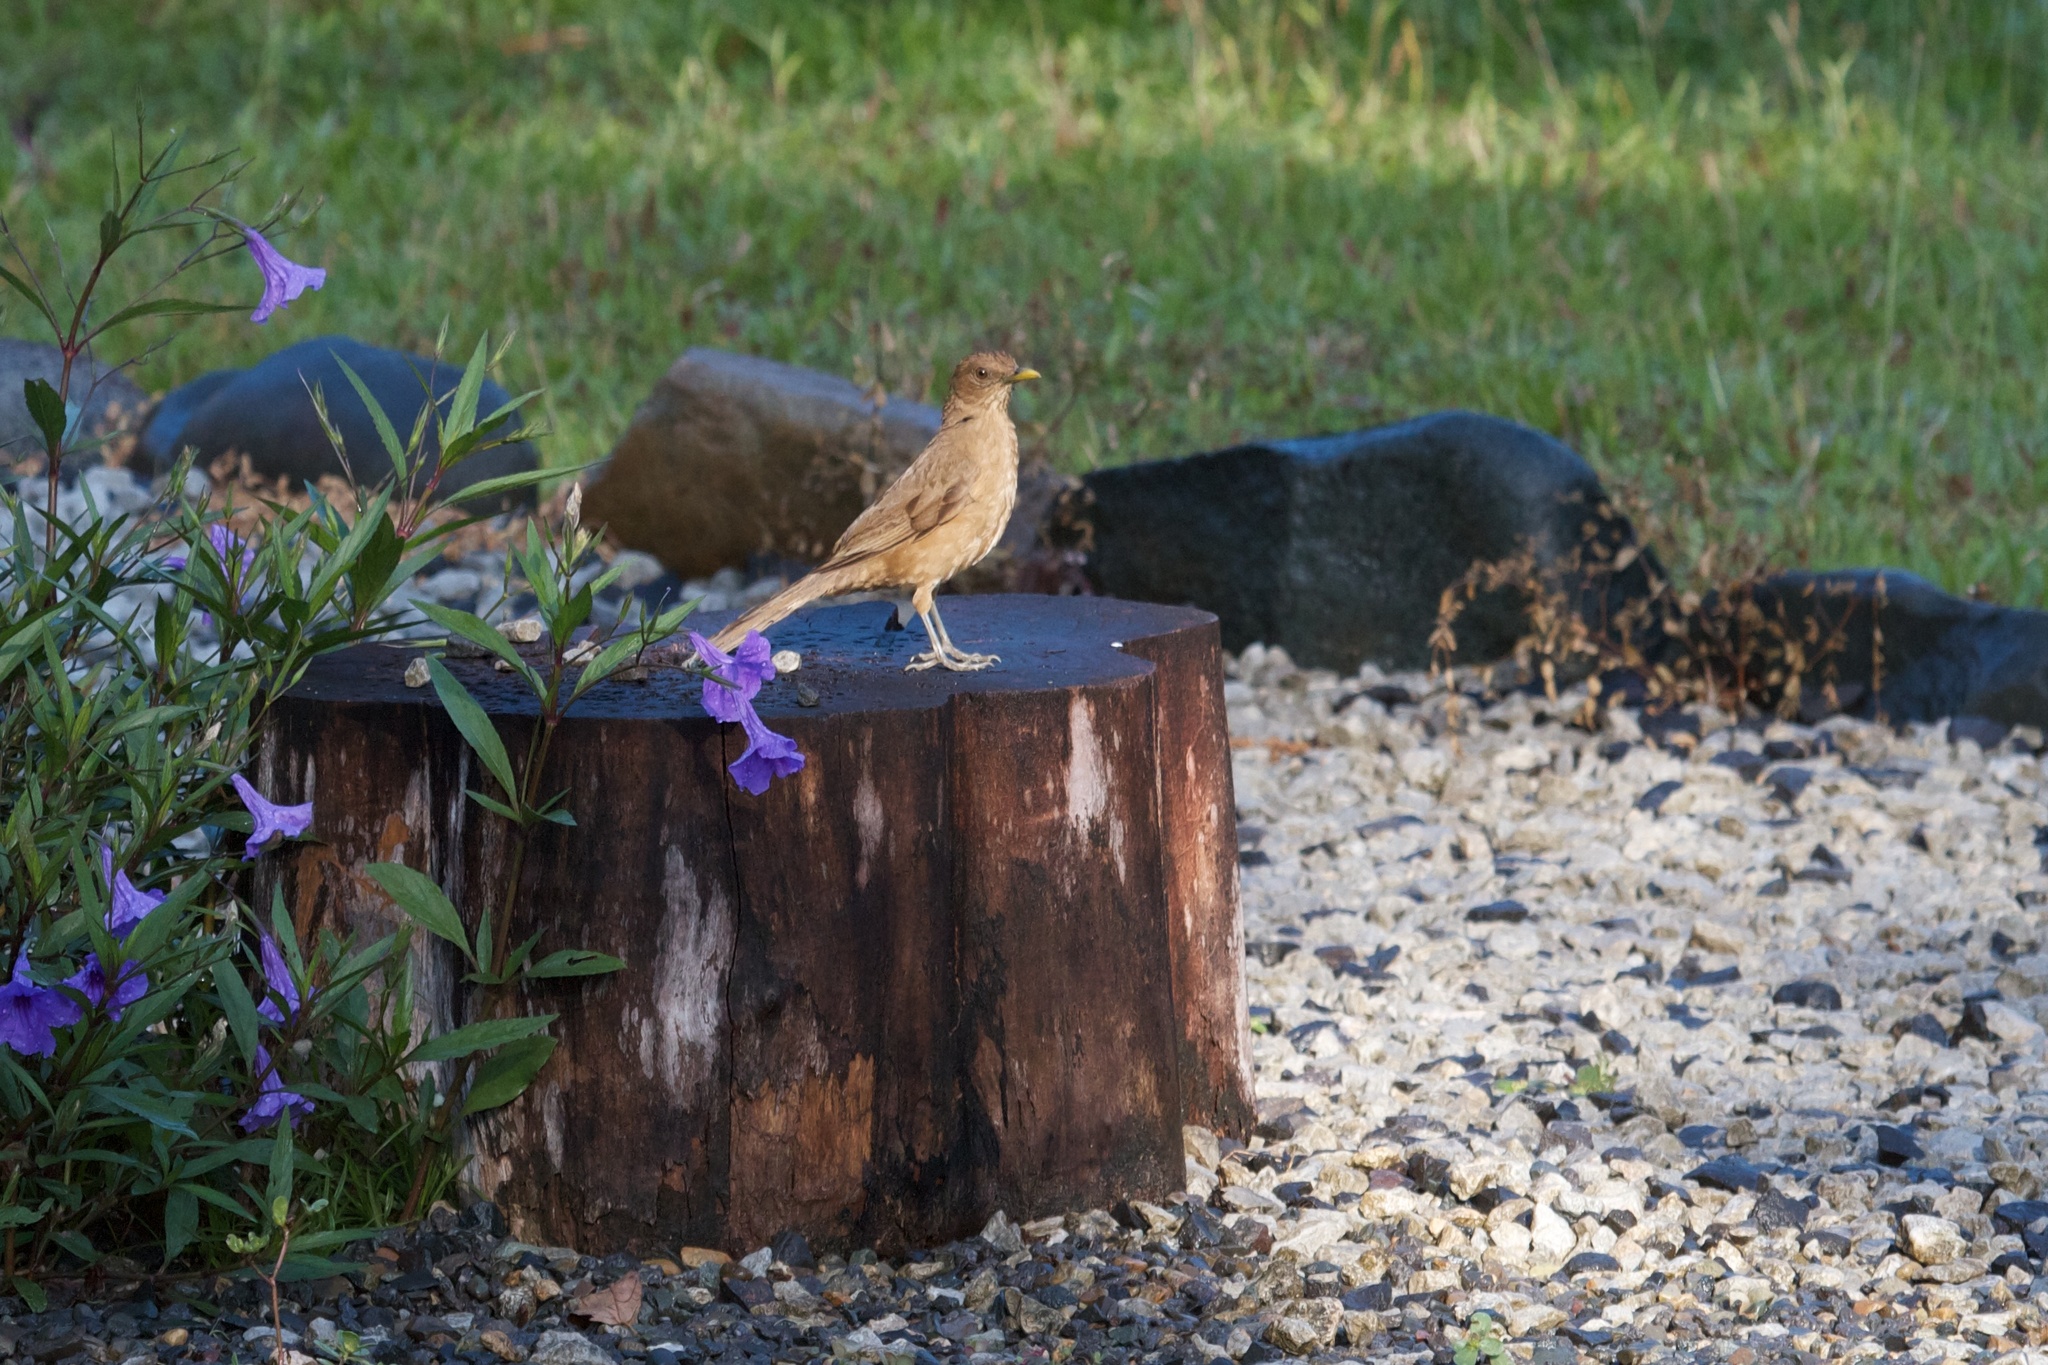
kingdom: Animalia
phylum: Chordata
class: Aves
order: Passeriformes
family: Turdidae
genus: Turdus
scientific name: Turdus grayi
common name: Clay-colored thrush
